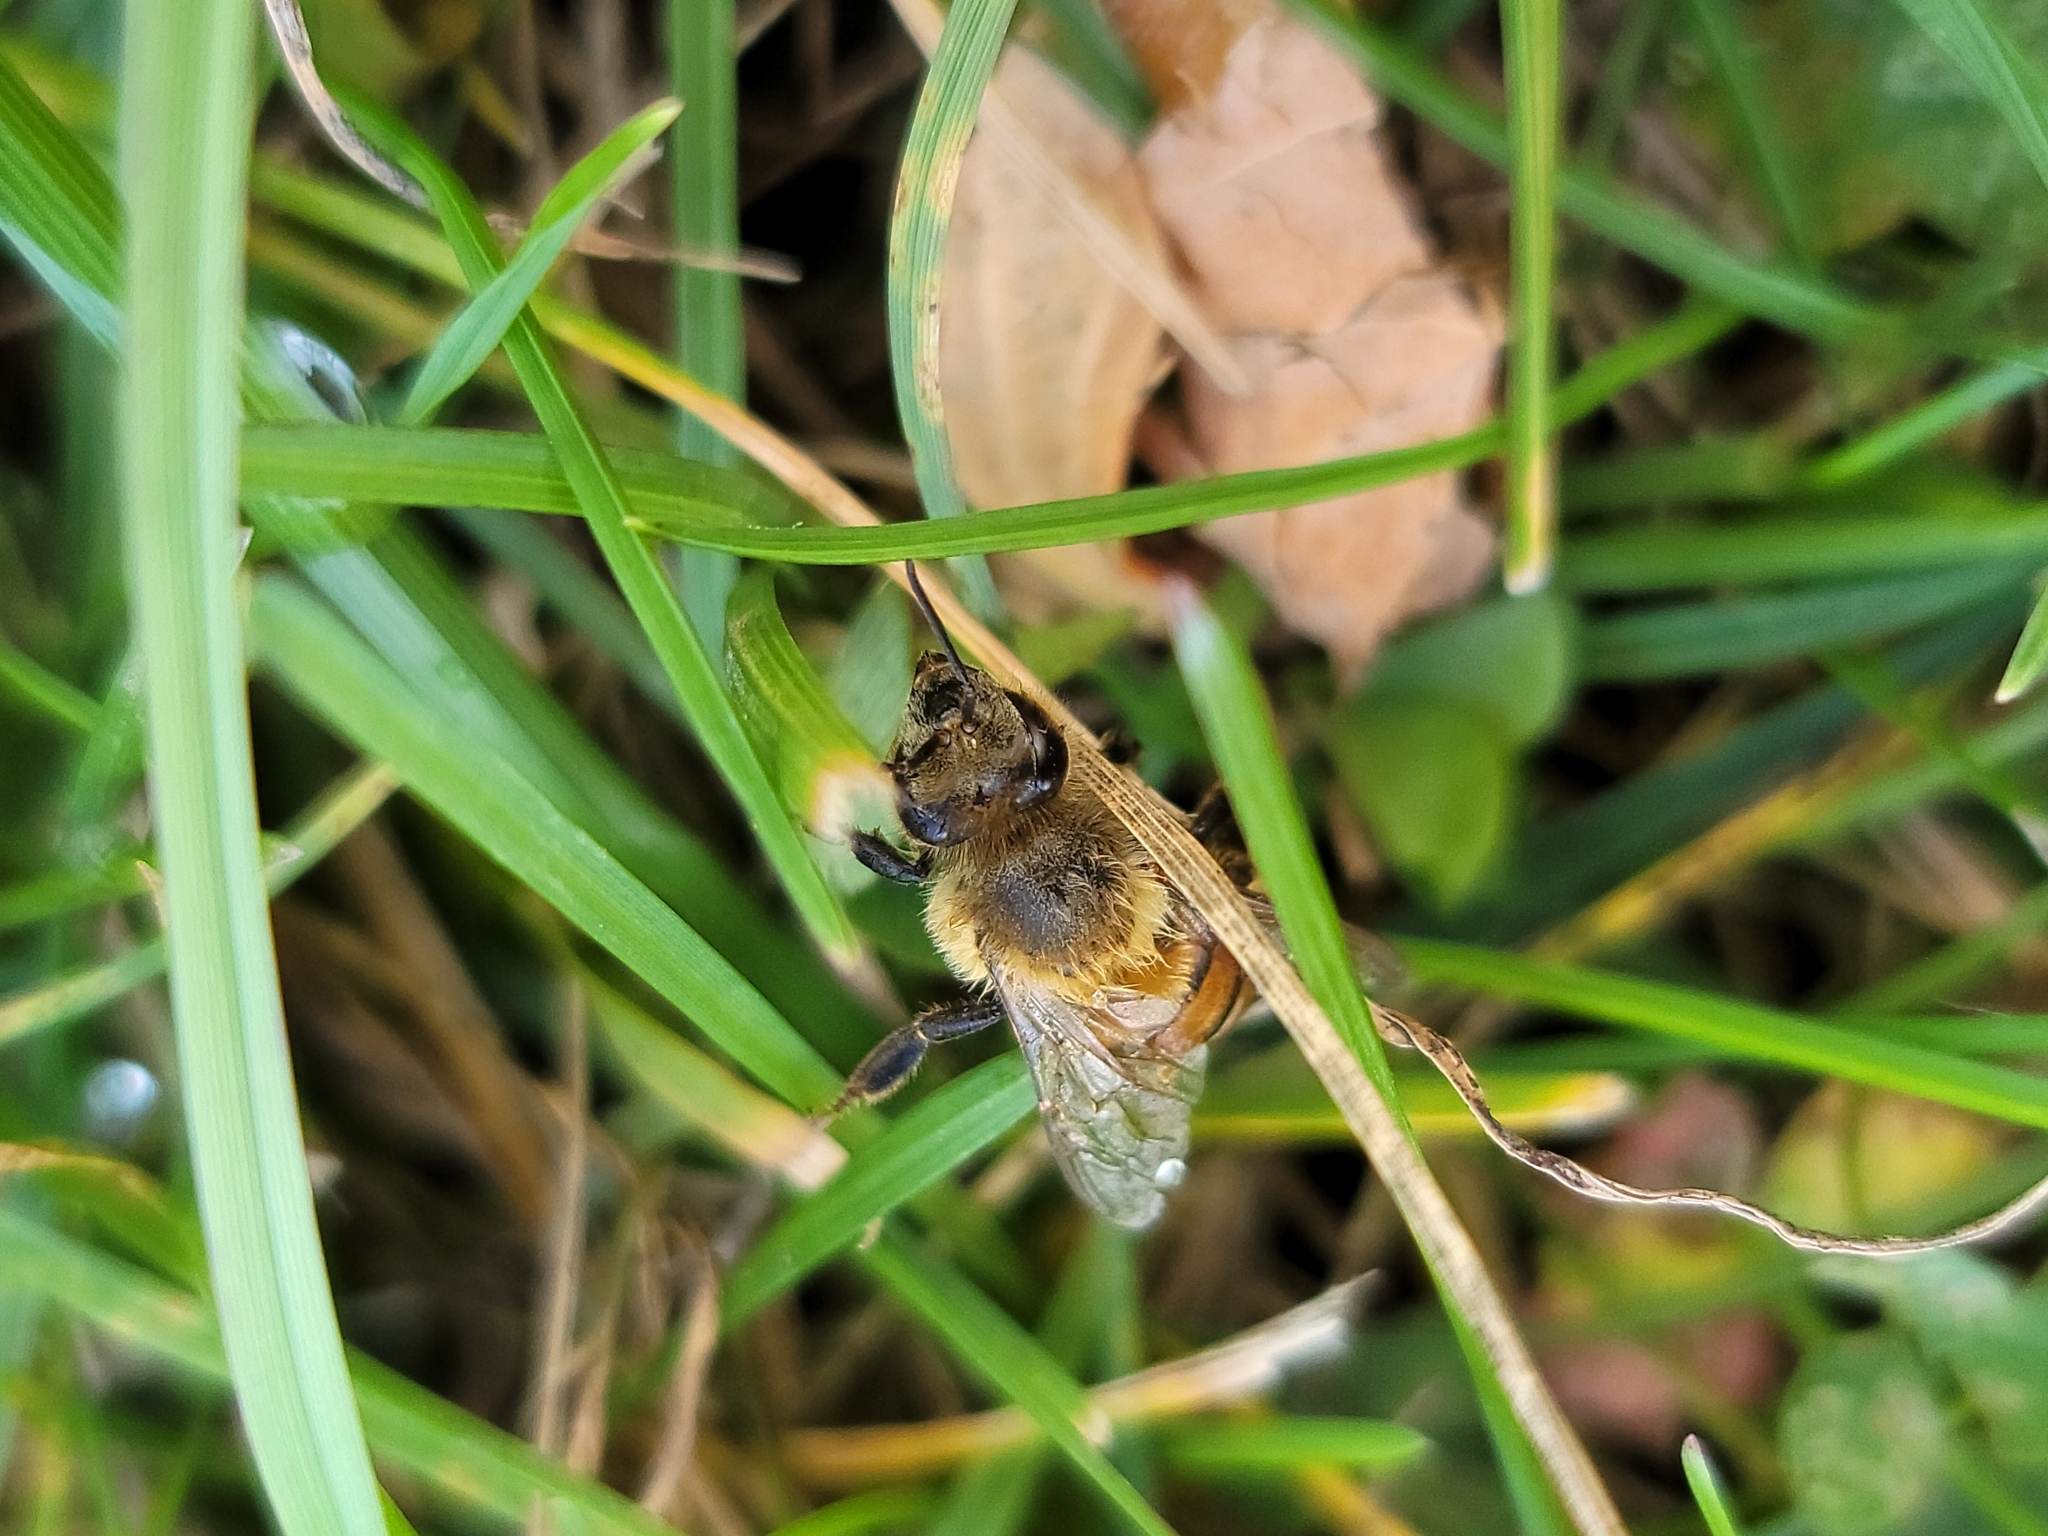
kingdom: Animalia
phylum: Arthropoda
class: Insecta
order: Hymenoptera
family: Apidae
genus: Apis
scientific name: Apis mellifera
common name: Honey bee
